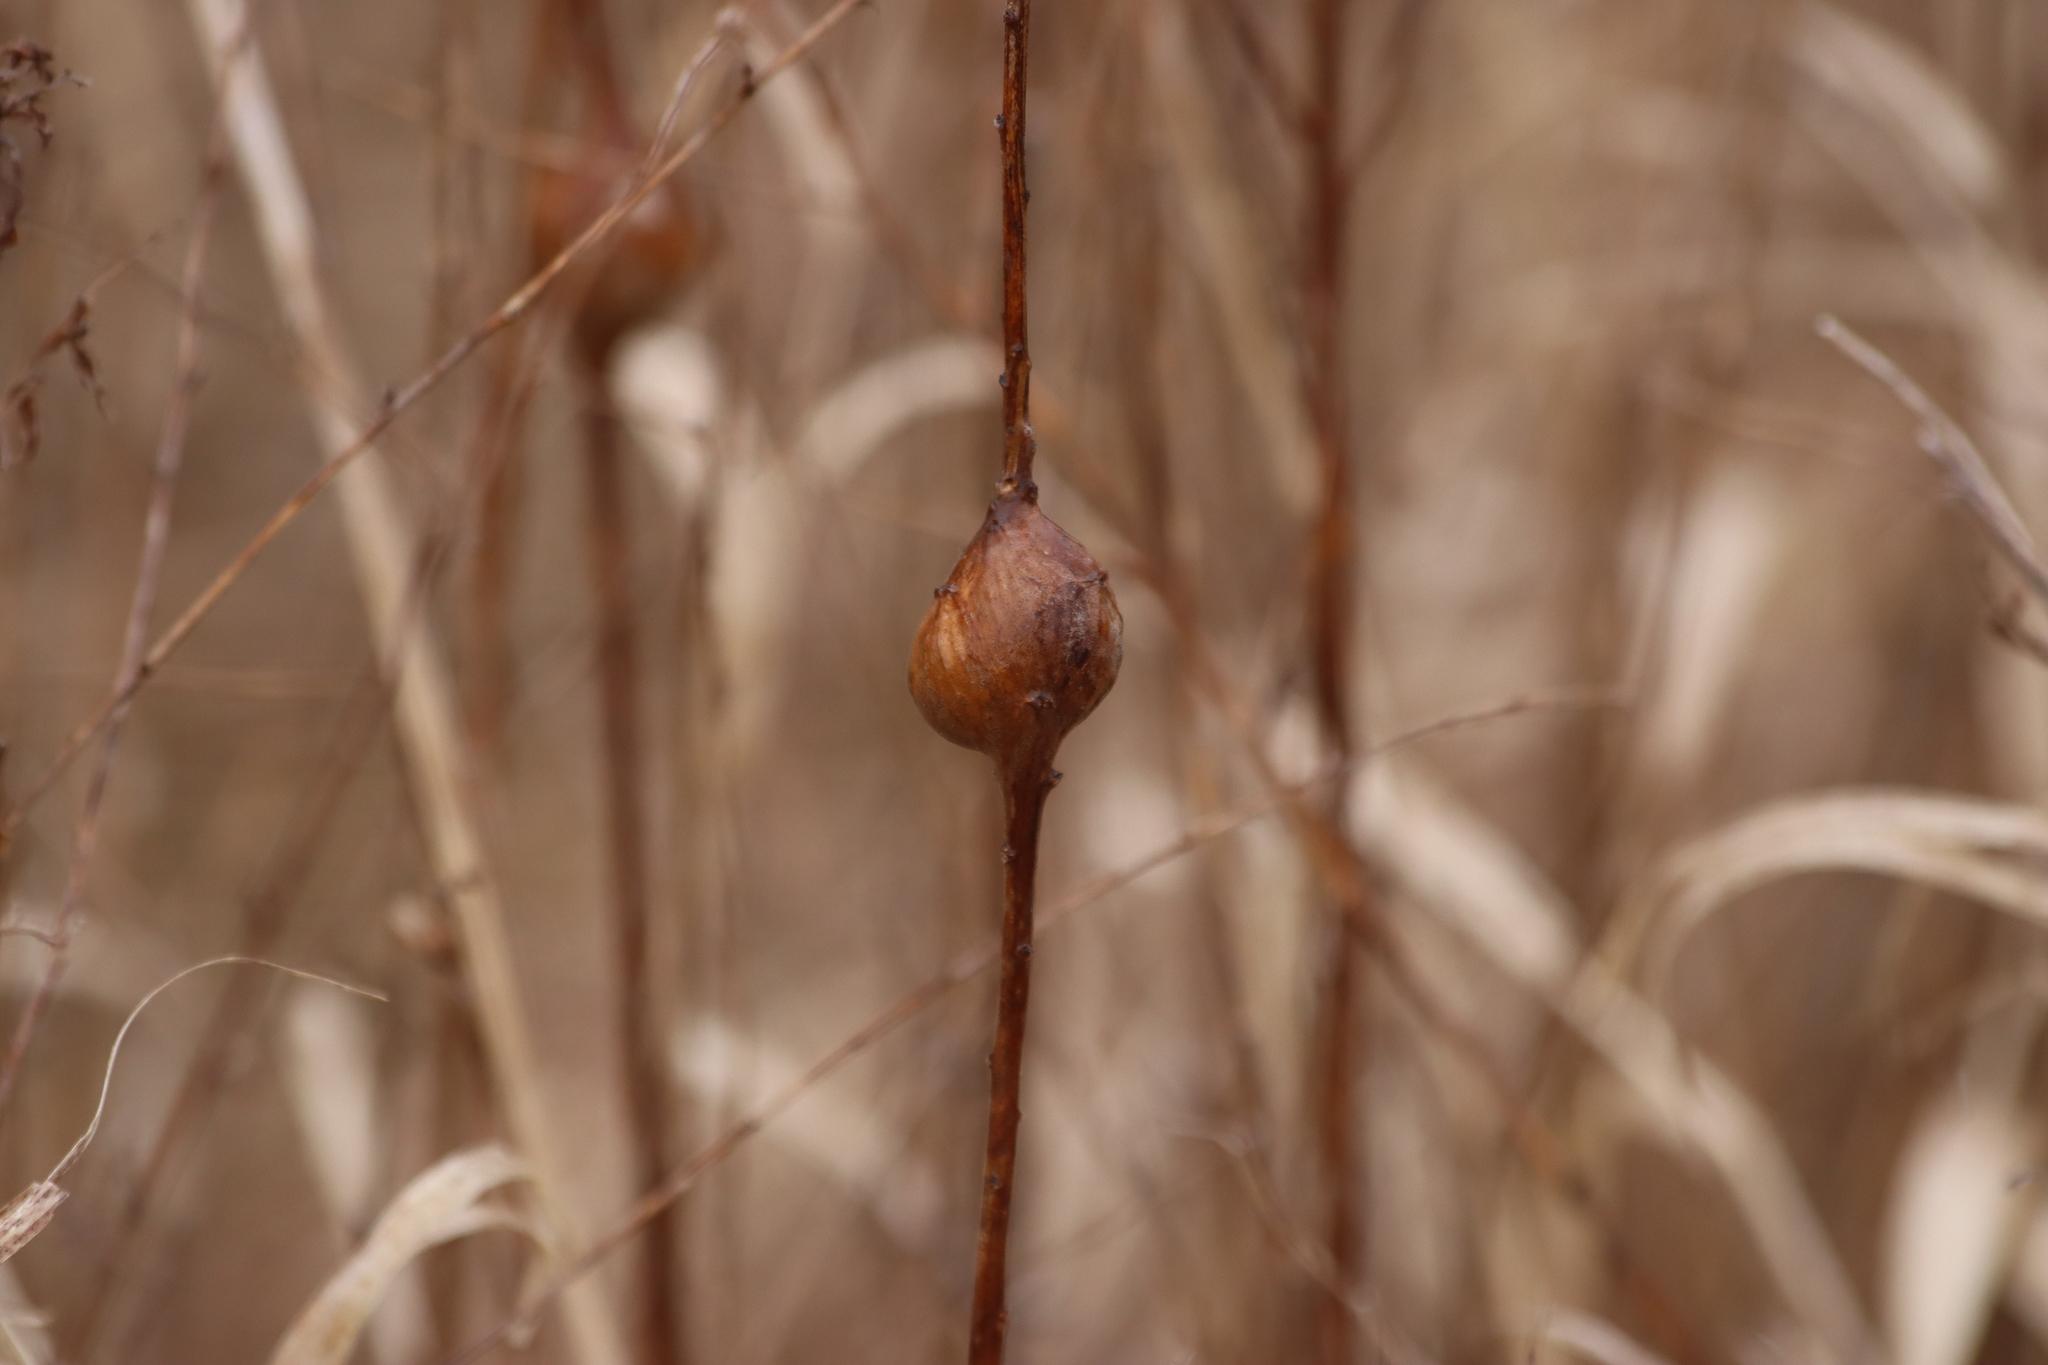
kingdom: Animalia
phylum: Arthropoda
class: Insecta
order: Diptera
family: Tephritidae
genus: Eurosta
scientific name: Eurosta solidaginis
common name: Goldenrod gall fly
